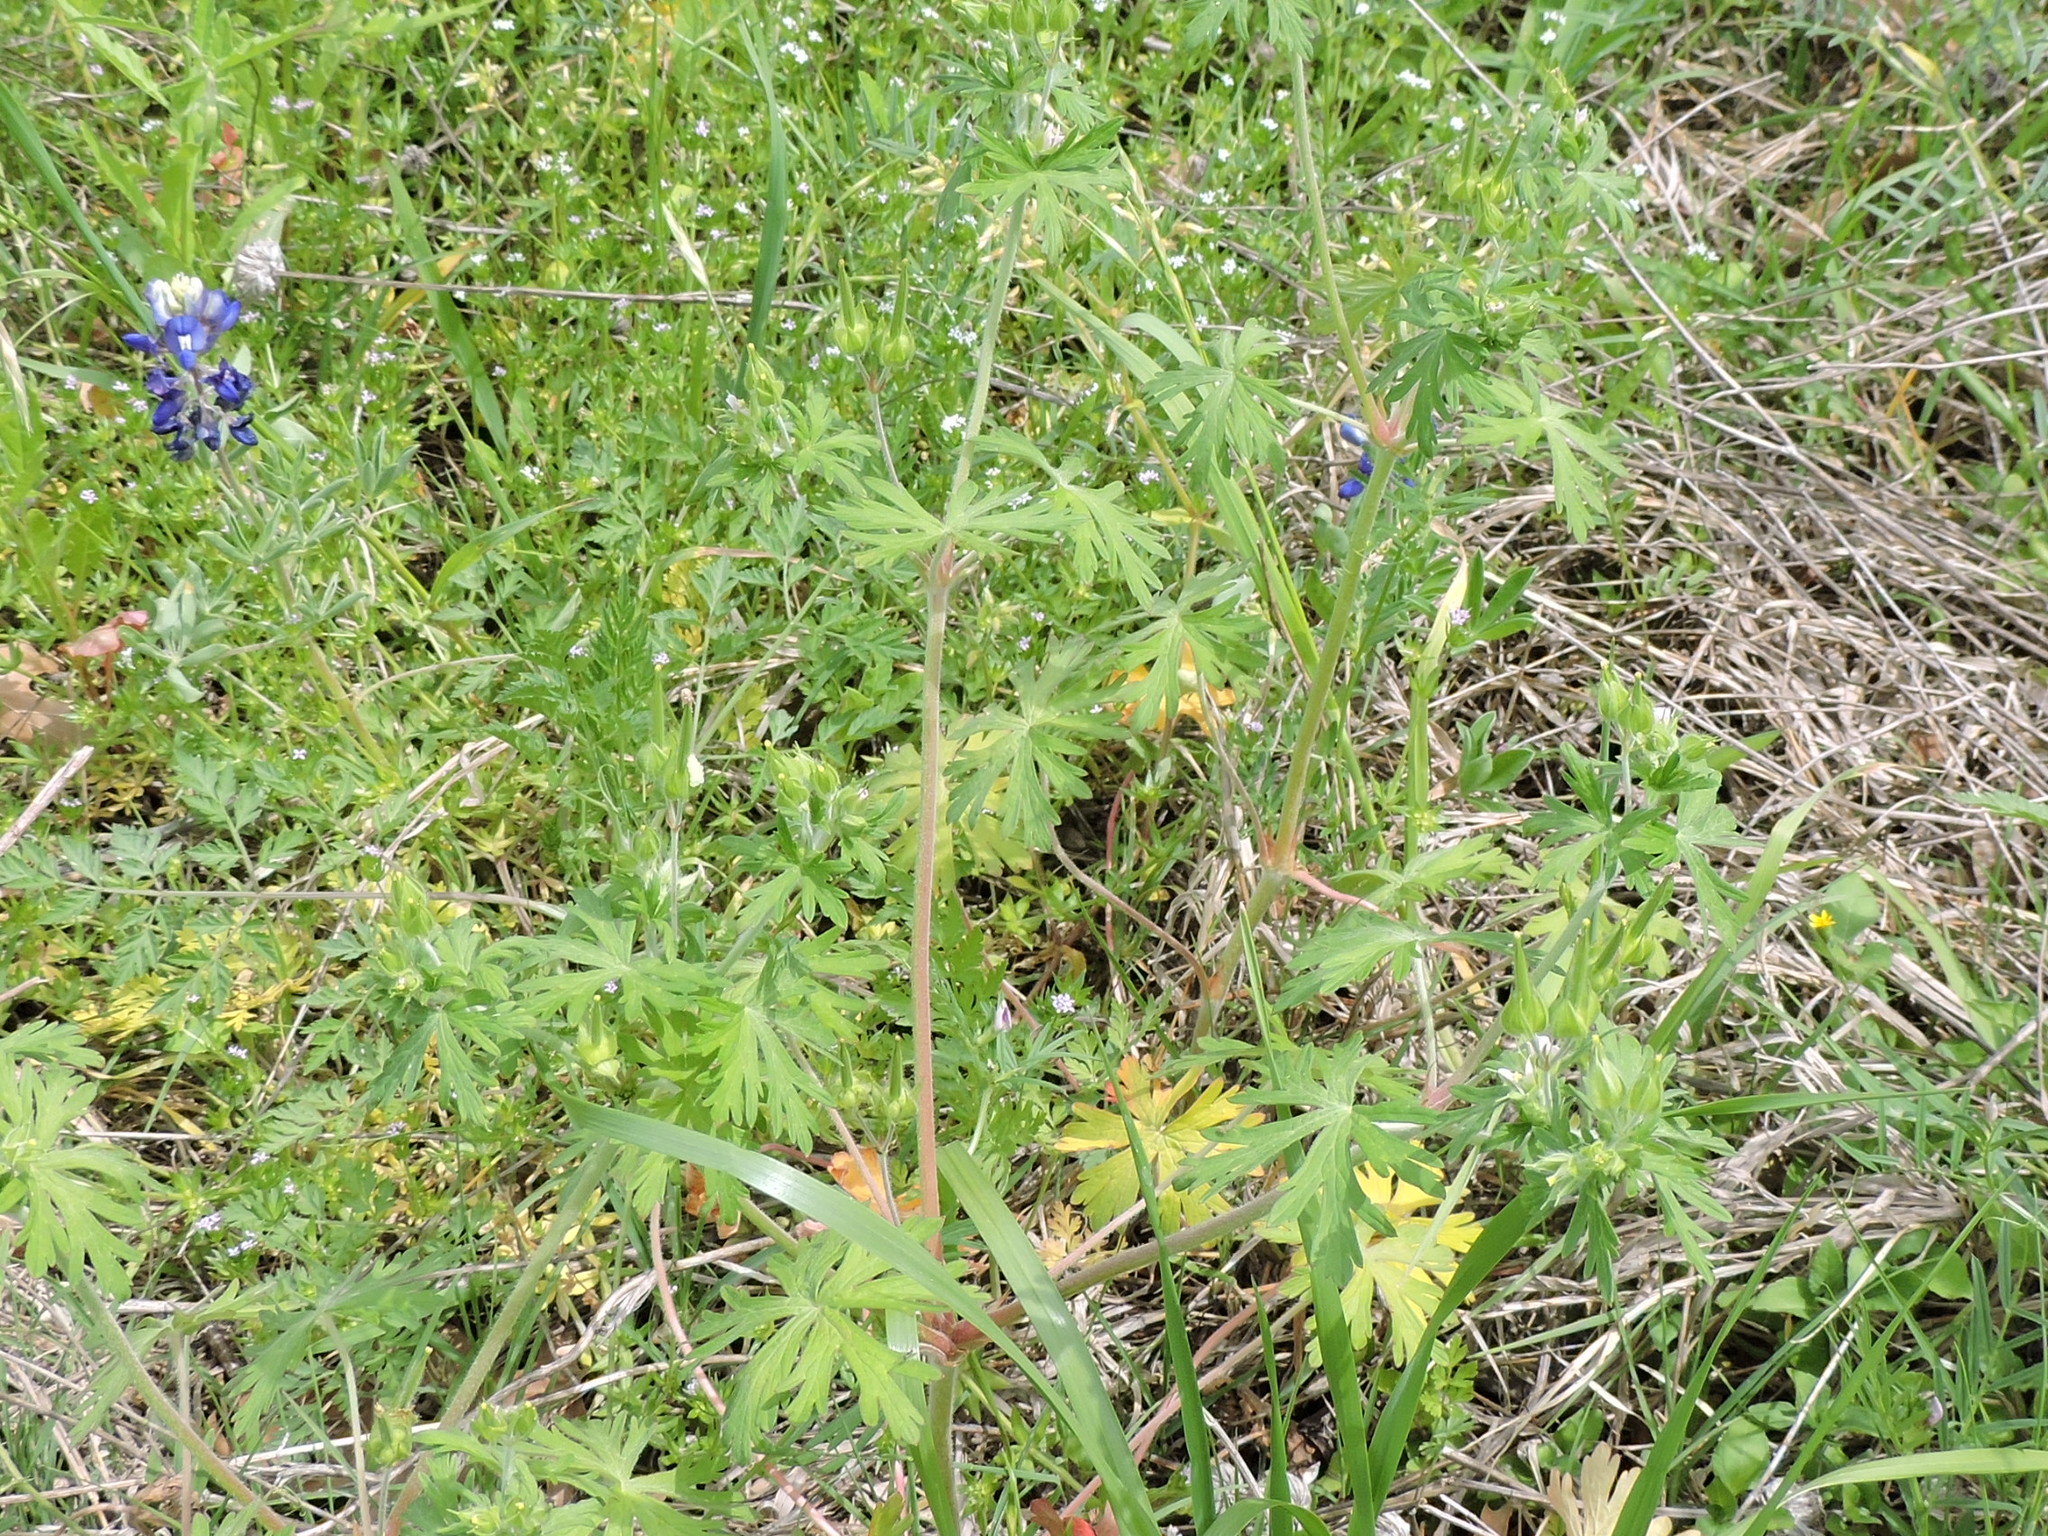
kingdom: Plantae
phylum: Tracheophyta
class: Magnoliopsida
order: Geraniales
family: Geraniaceae
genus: Geranium
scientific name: Geranium carolinianum
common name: Carolina crane's-bill
